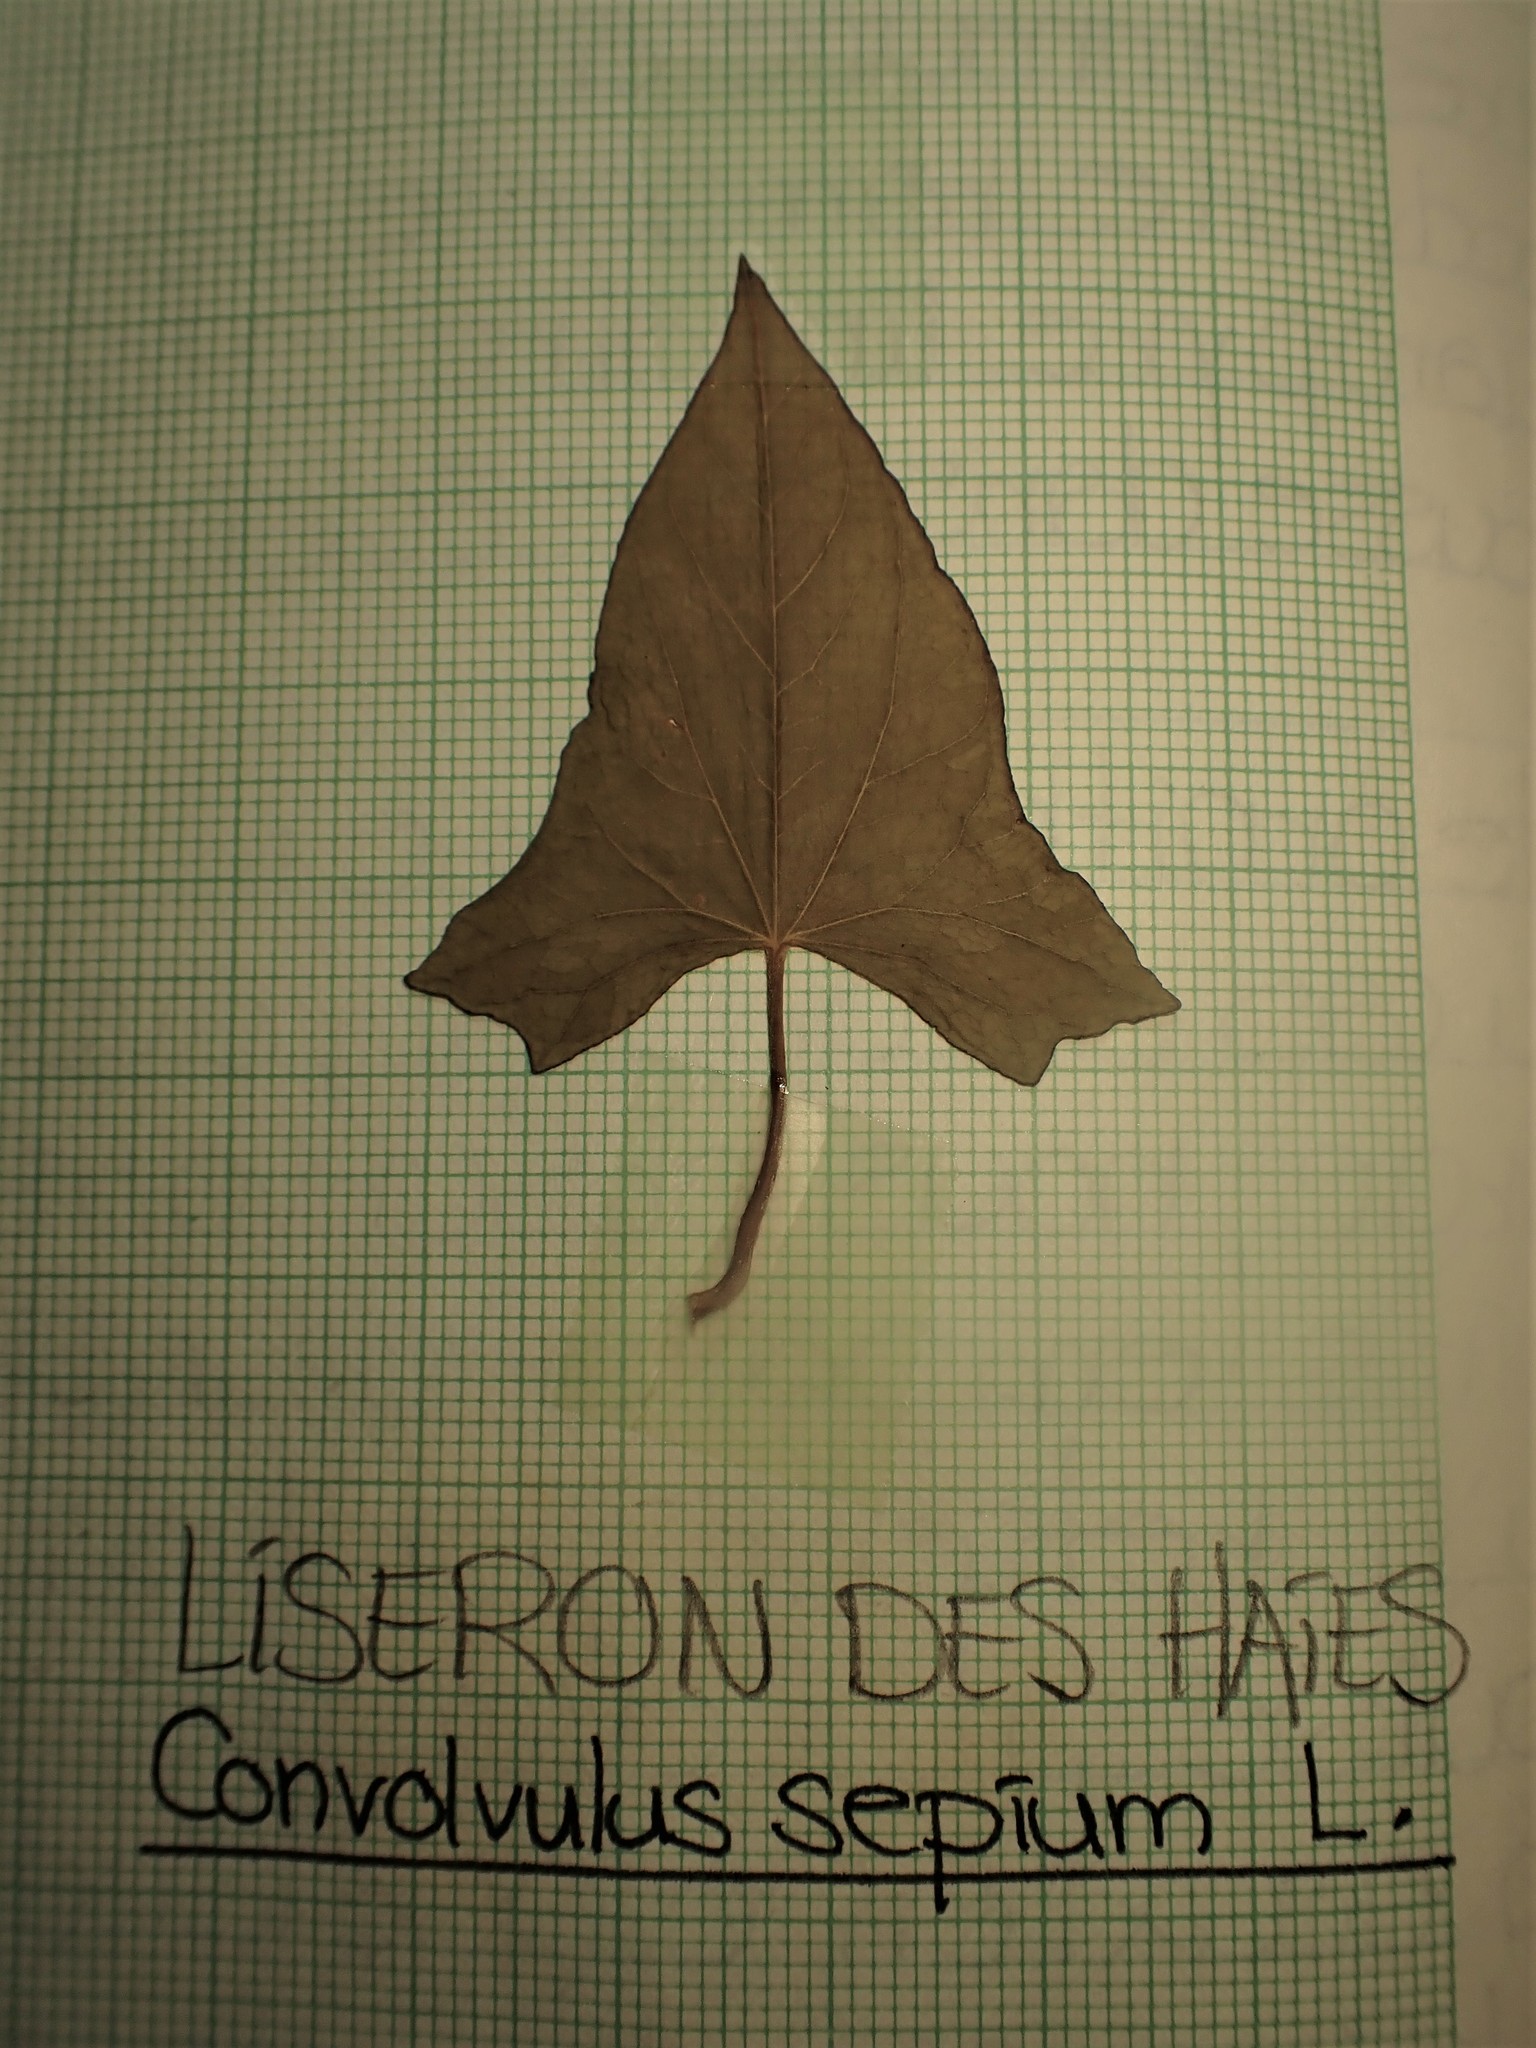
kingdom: Plantae
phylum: Tracheophyta
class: Magnoliopsida
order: Solanales
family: Convolvulaceae
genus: Calystegia
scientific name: Calystegia sepium
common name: Hedge bindweed
